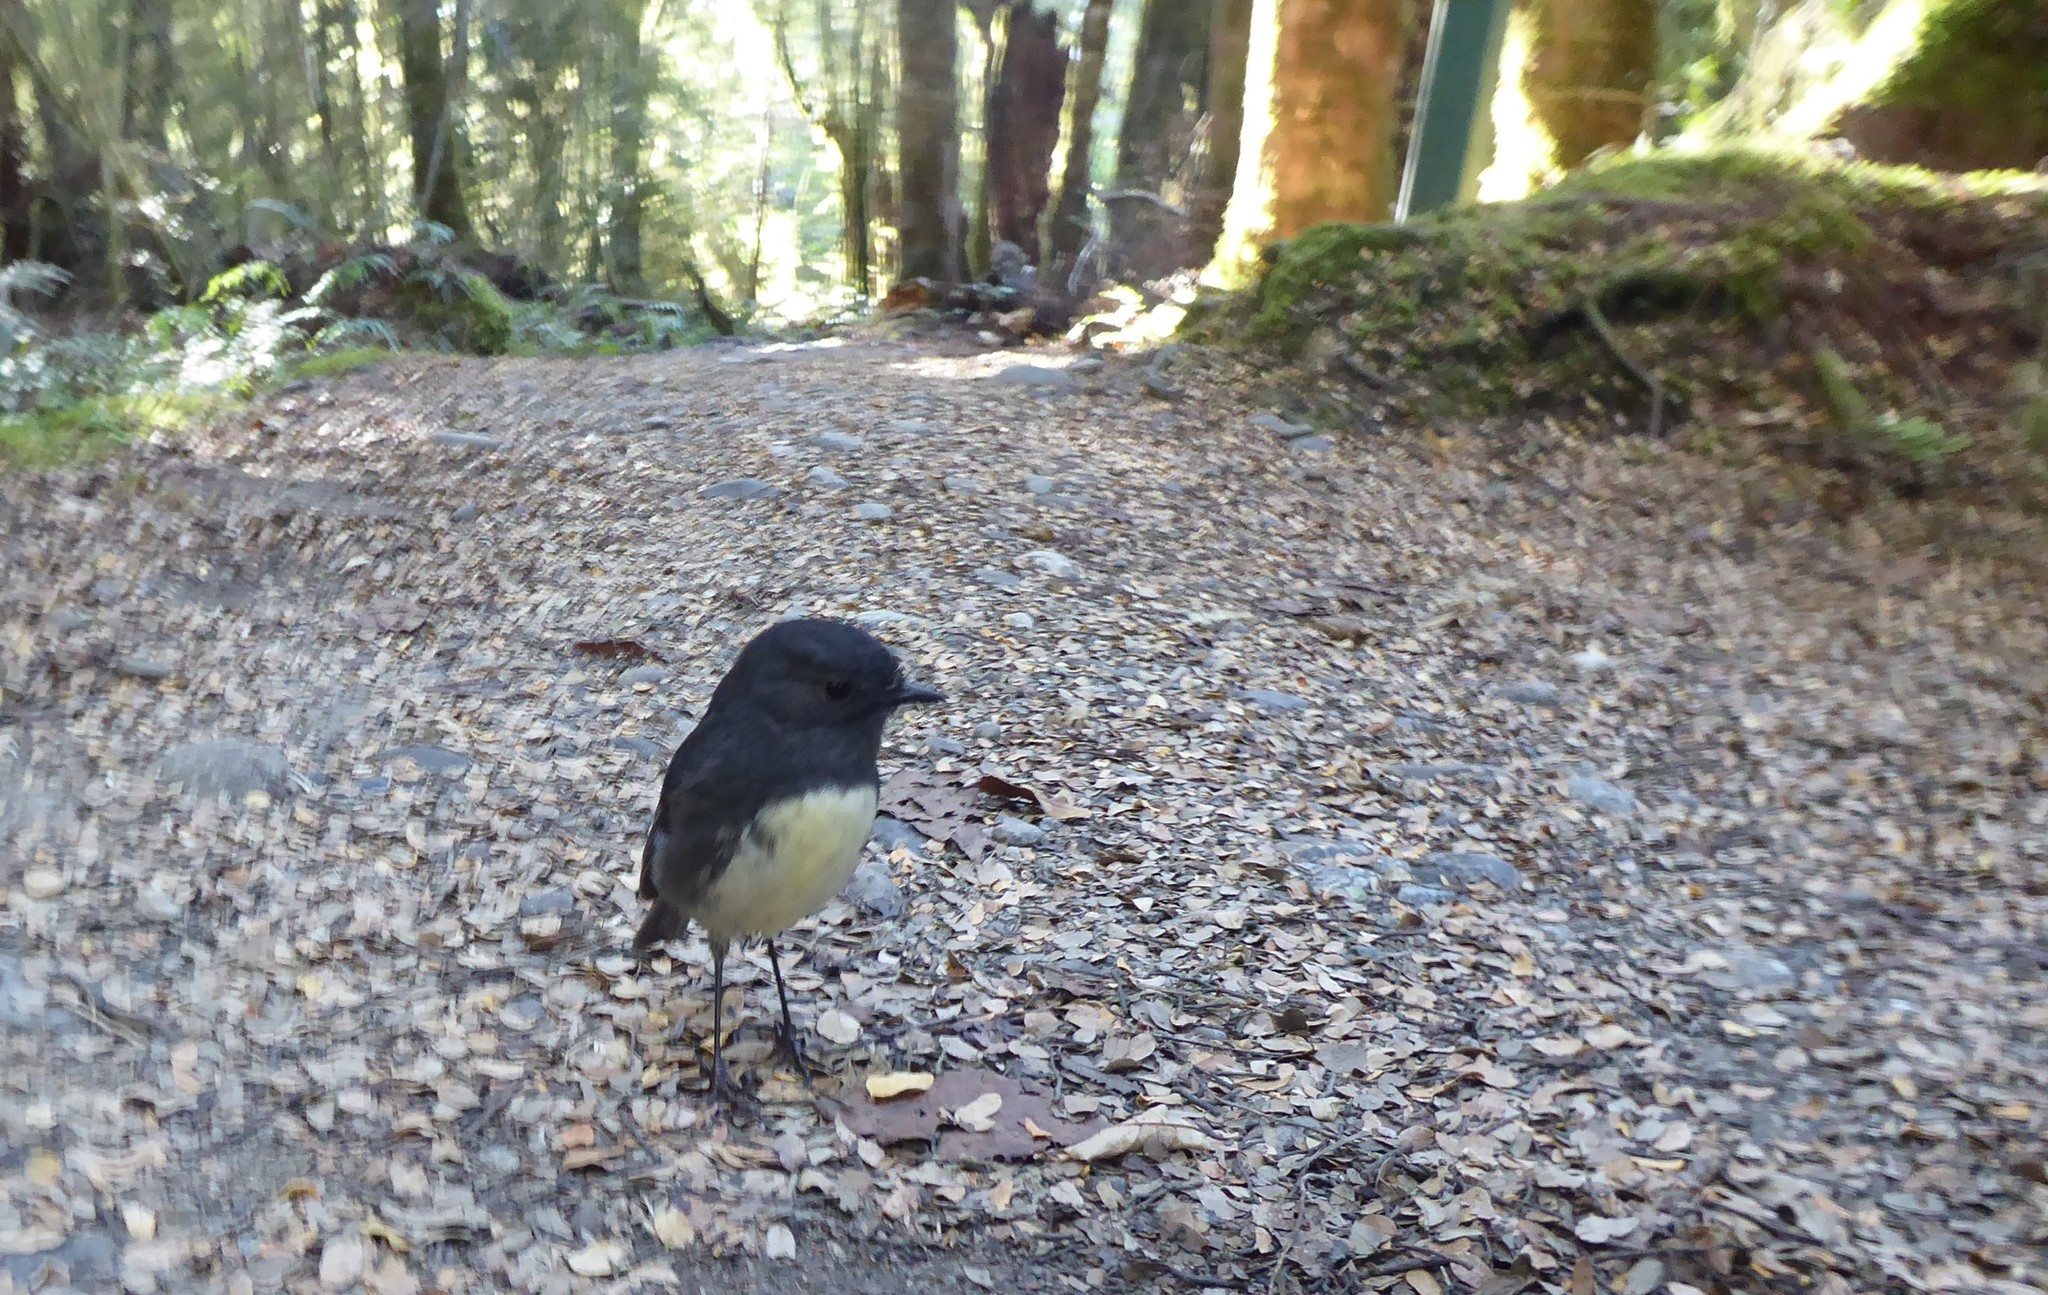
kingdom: Animalia
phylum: Chordata
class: Aves
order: Passeriformes
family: Petroicidae
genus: Petroica
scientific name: Petroica australis
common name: New zealand robin
